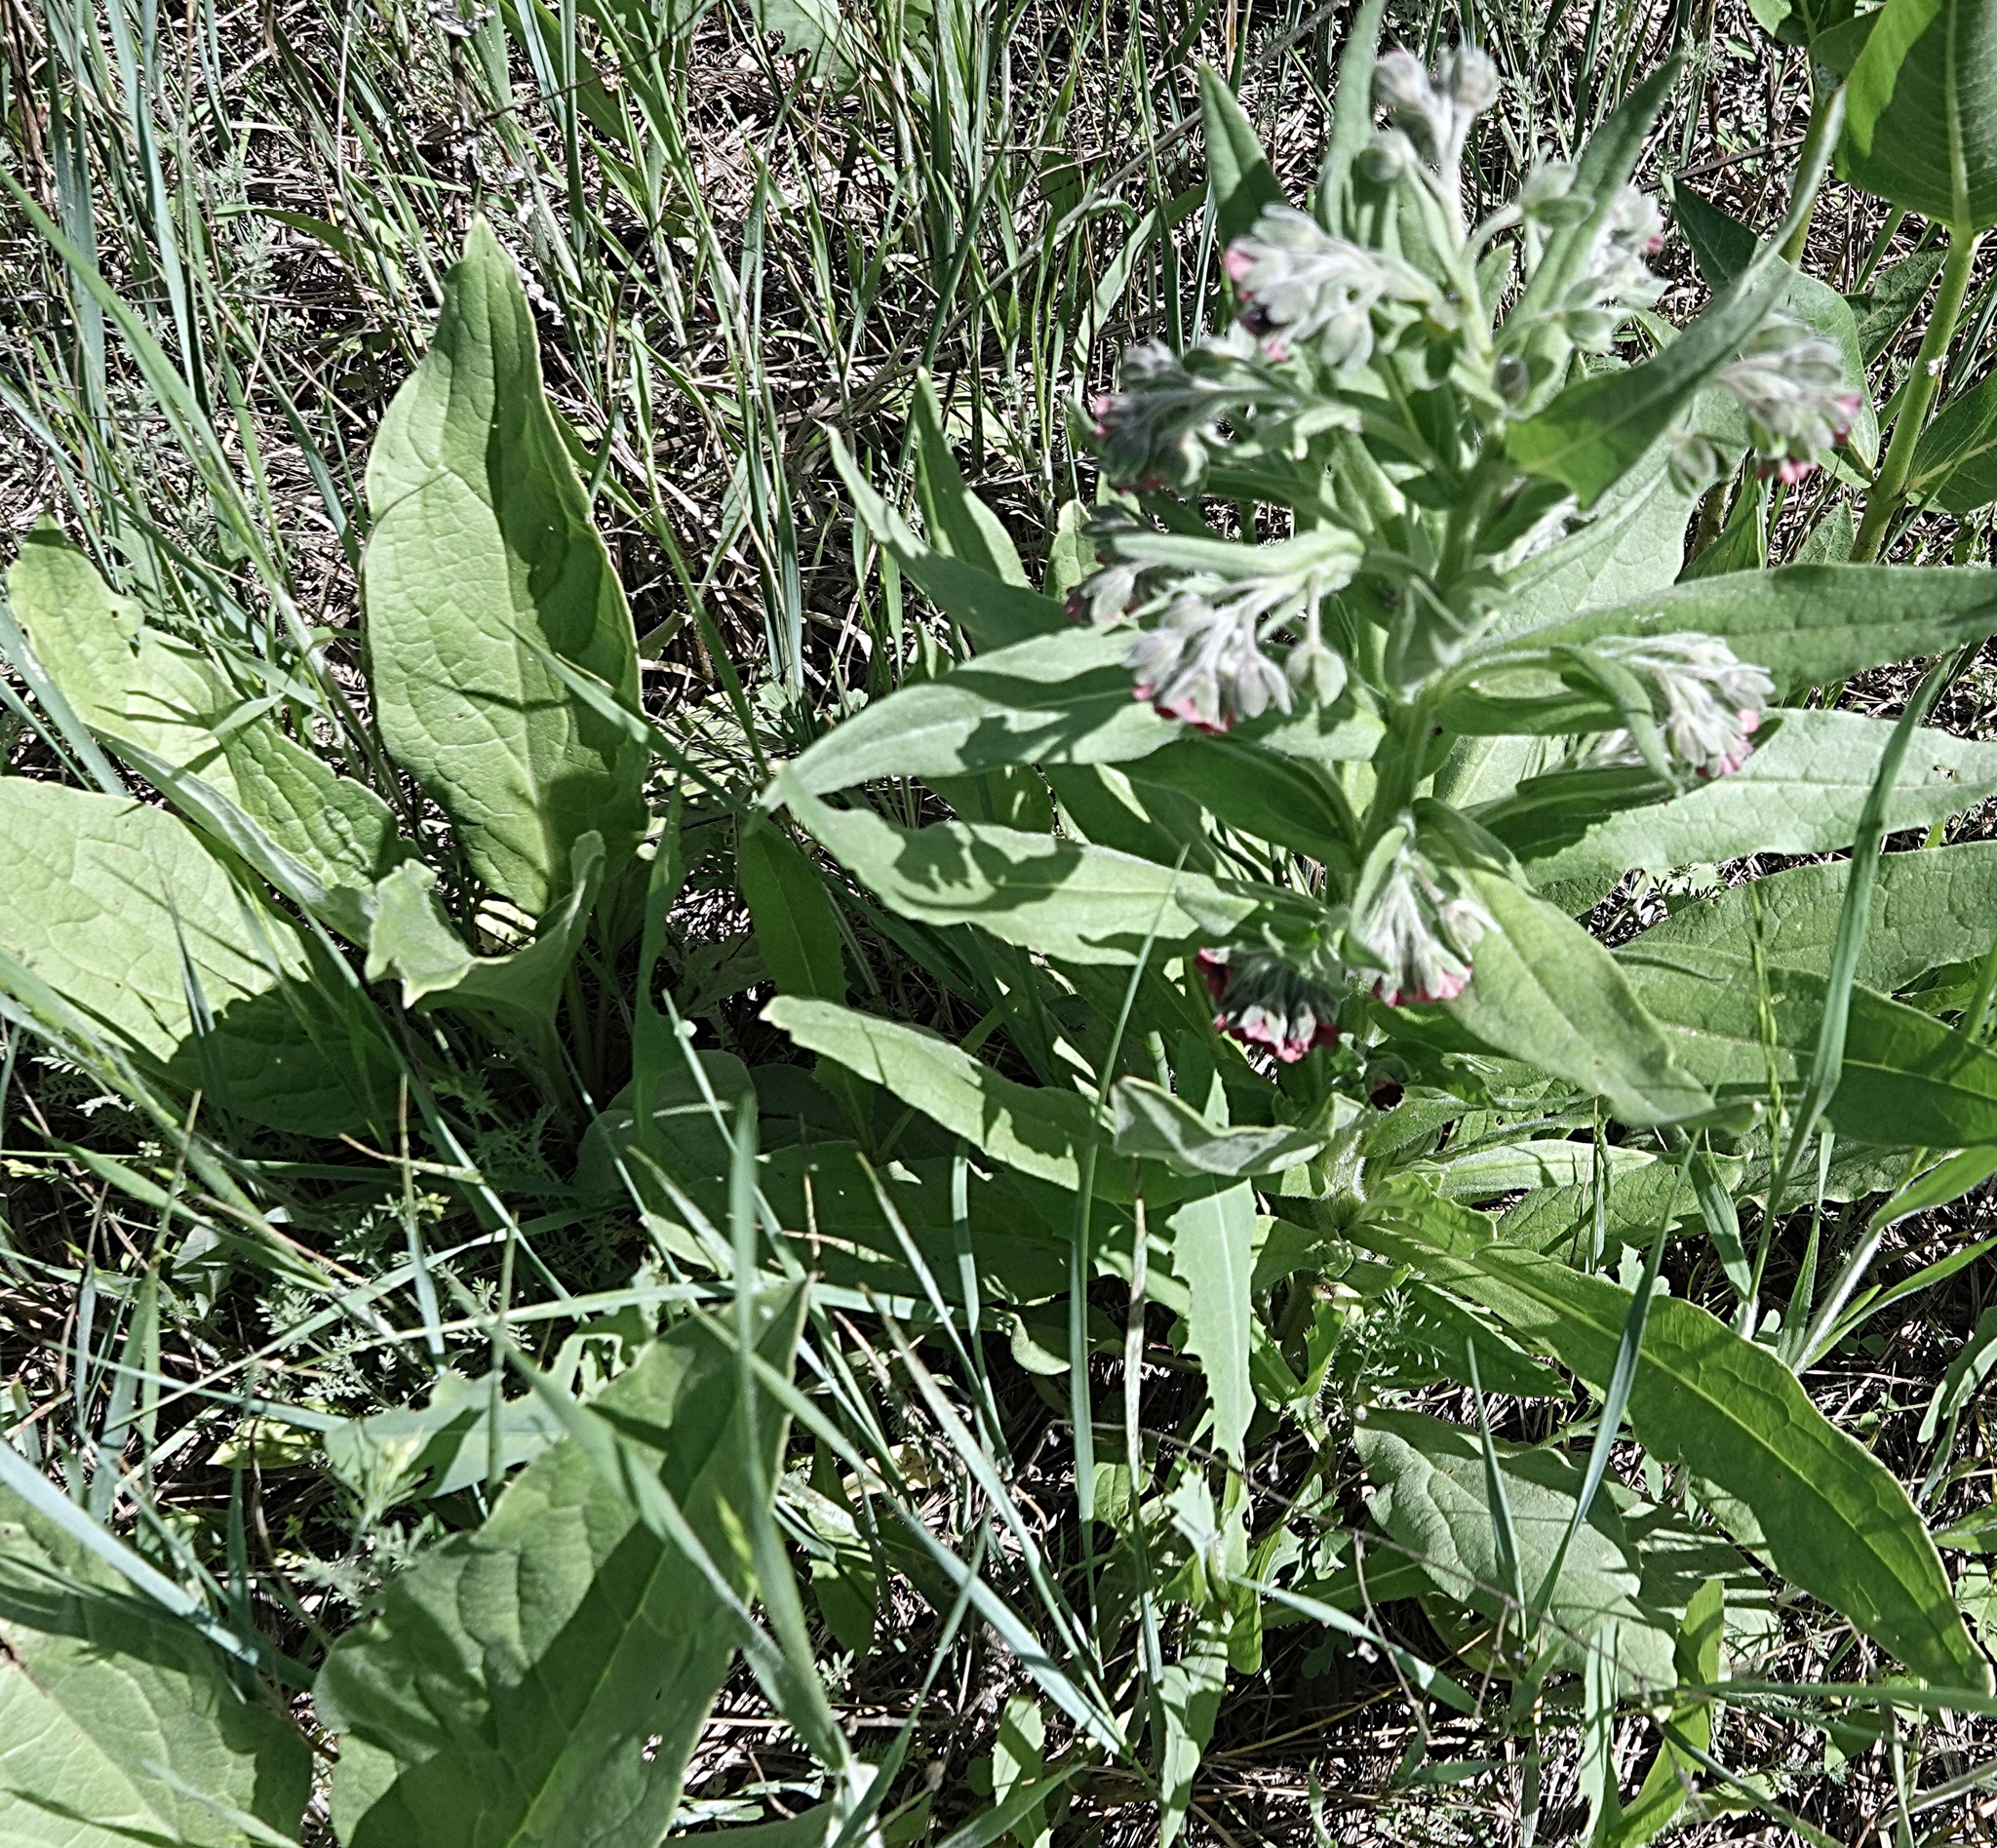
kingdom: Plantae
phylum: Tracheophyta
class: Magnoliopsida
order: Boraginales
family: Boraginaceae
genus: Cynoglossum
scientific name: Cynoglossum officinale
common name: Hound's-tongue
